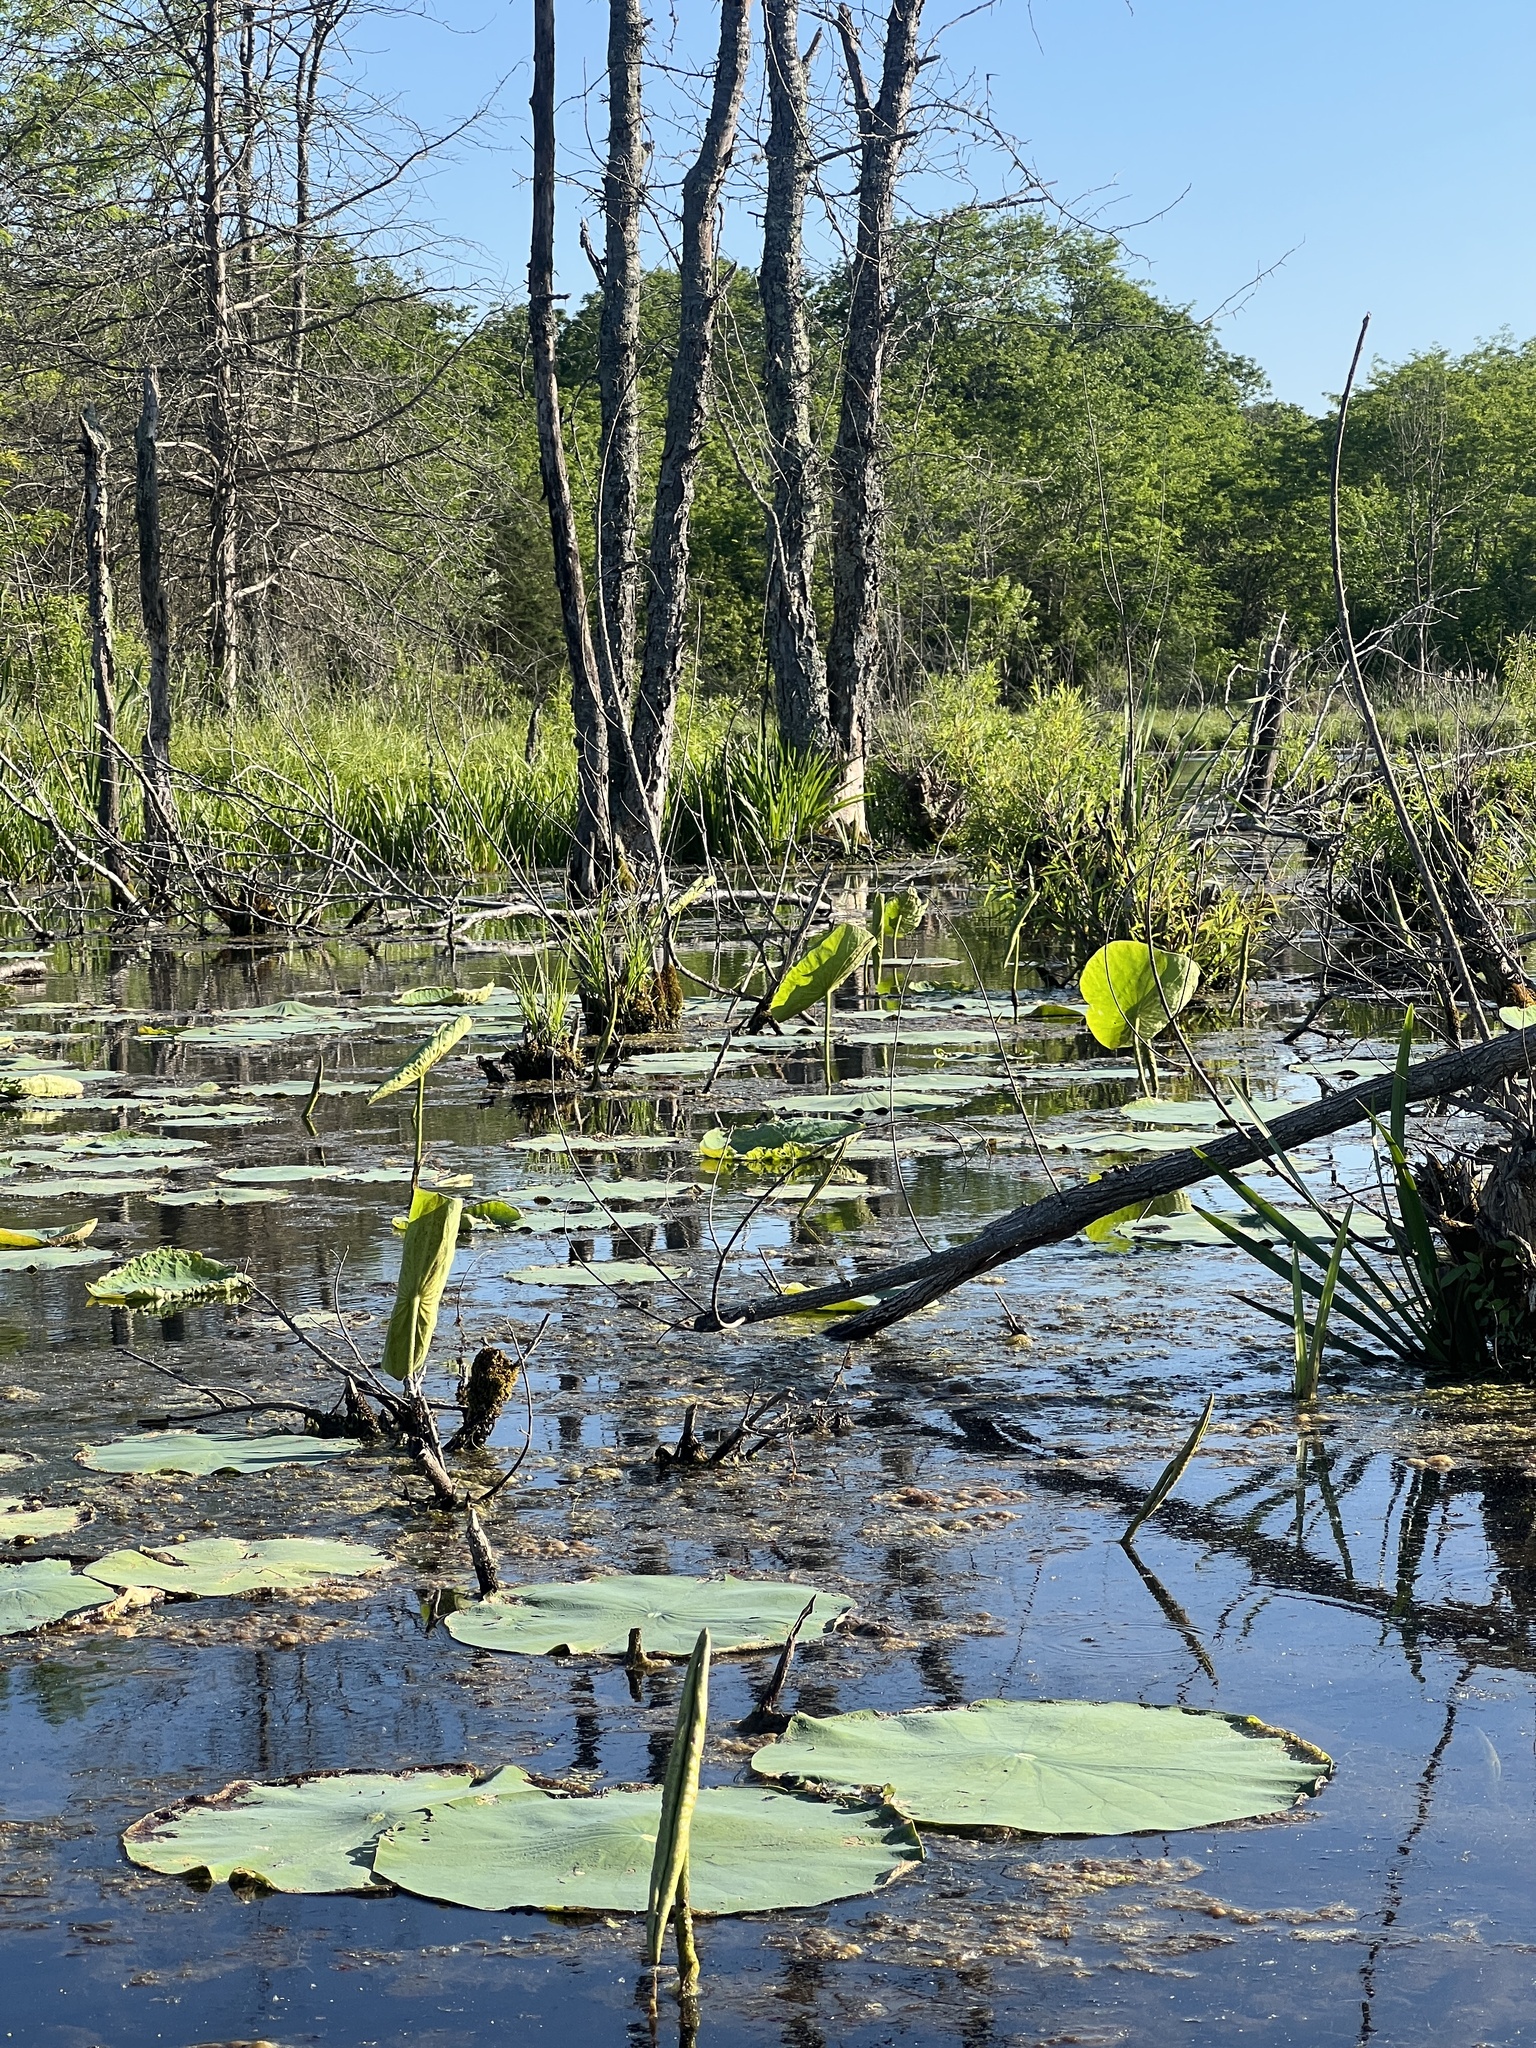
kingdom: Plantae
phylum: Tracheophyta
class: Magnoliopsida
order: Proteales
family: Nelumbonaceae
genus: Nelumbo
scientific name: Nelumbo lutea
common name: American lotus
